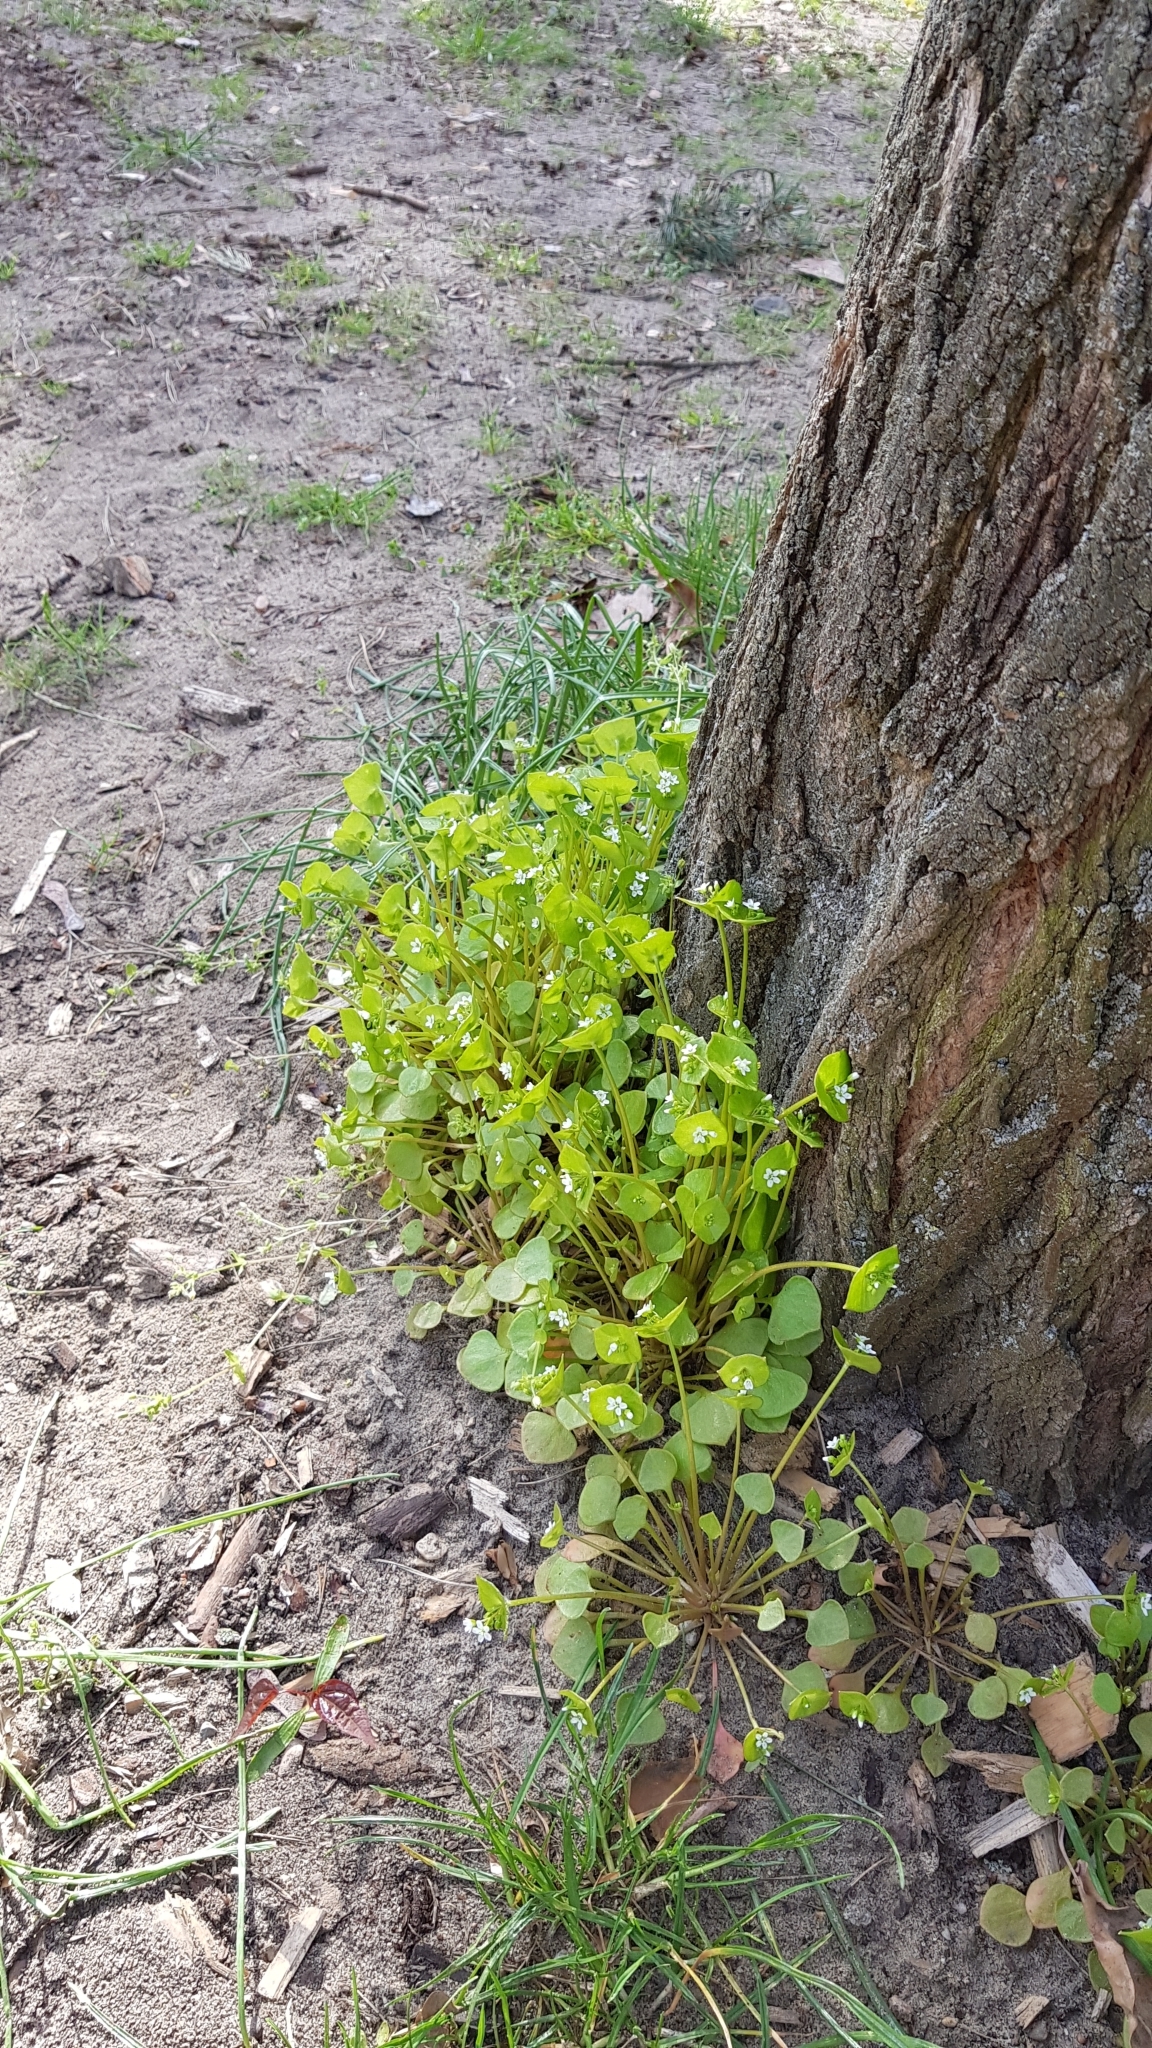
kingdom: Plantae
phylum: Tracheophyta
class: Magnoliopsida
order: Caryophyllales
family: Montiaceae
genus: Claytonia
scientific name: Claytonia perfoliata
